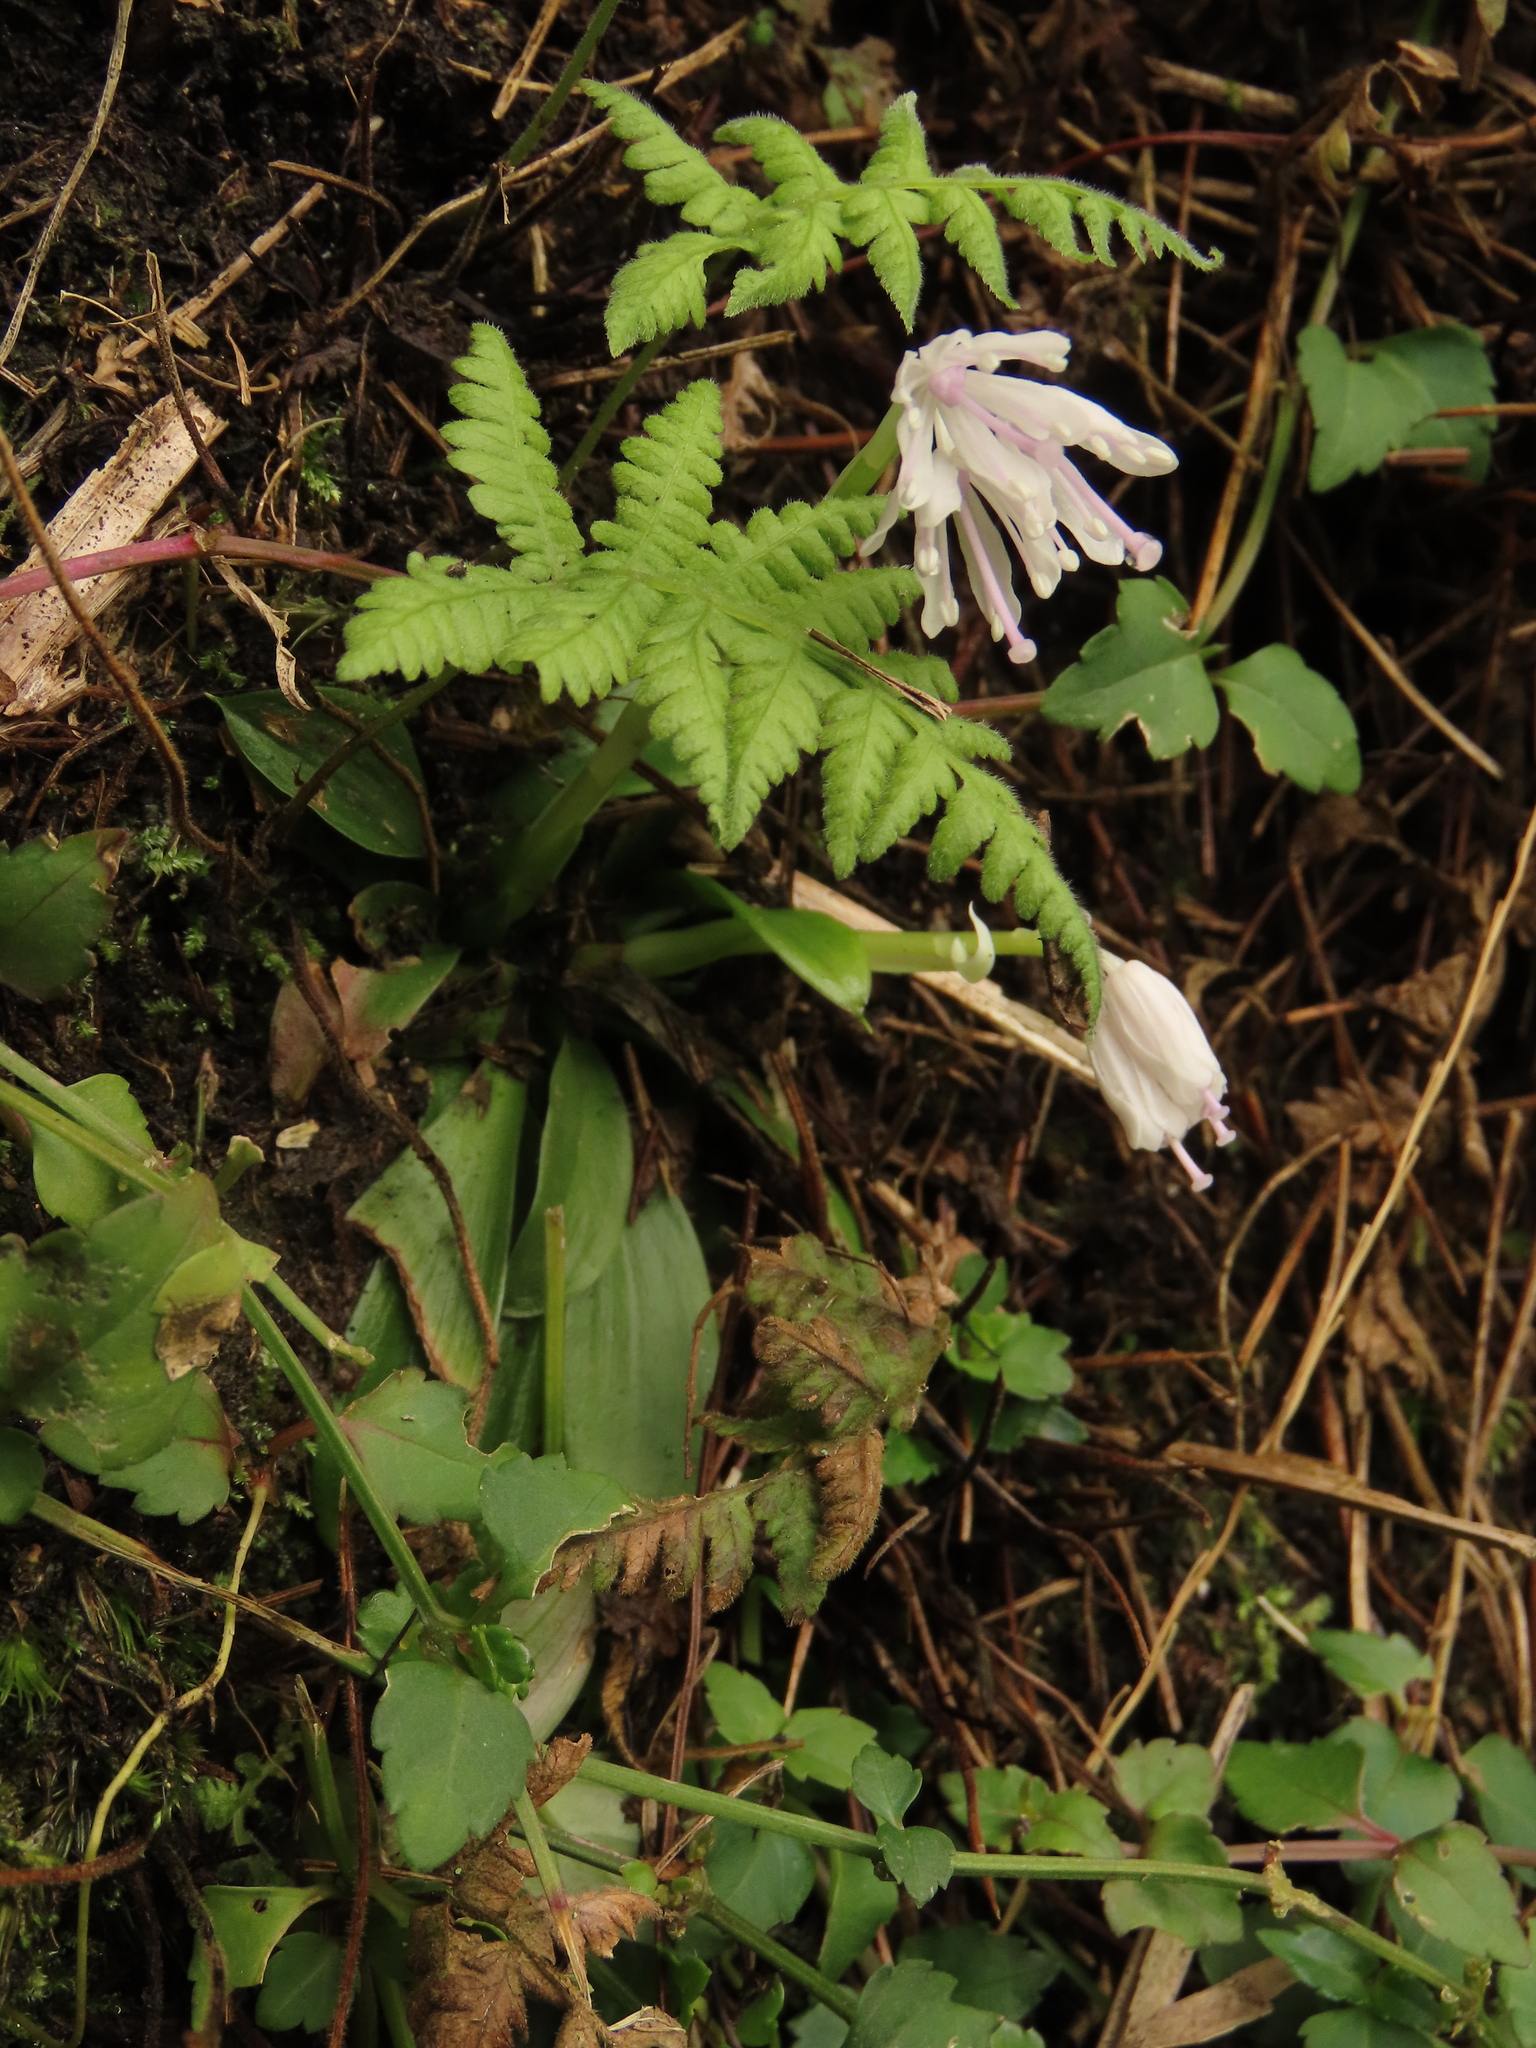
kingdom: Plantae
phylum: Tracheophyta
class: Liliopsida
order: Liliales
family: Melanthiaceae
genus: Helonias
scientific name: Helonias umbellata
